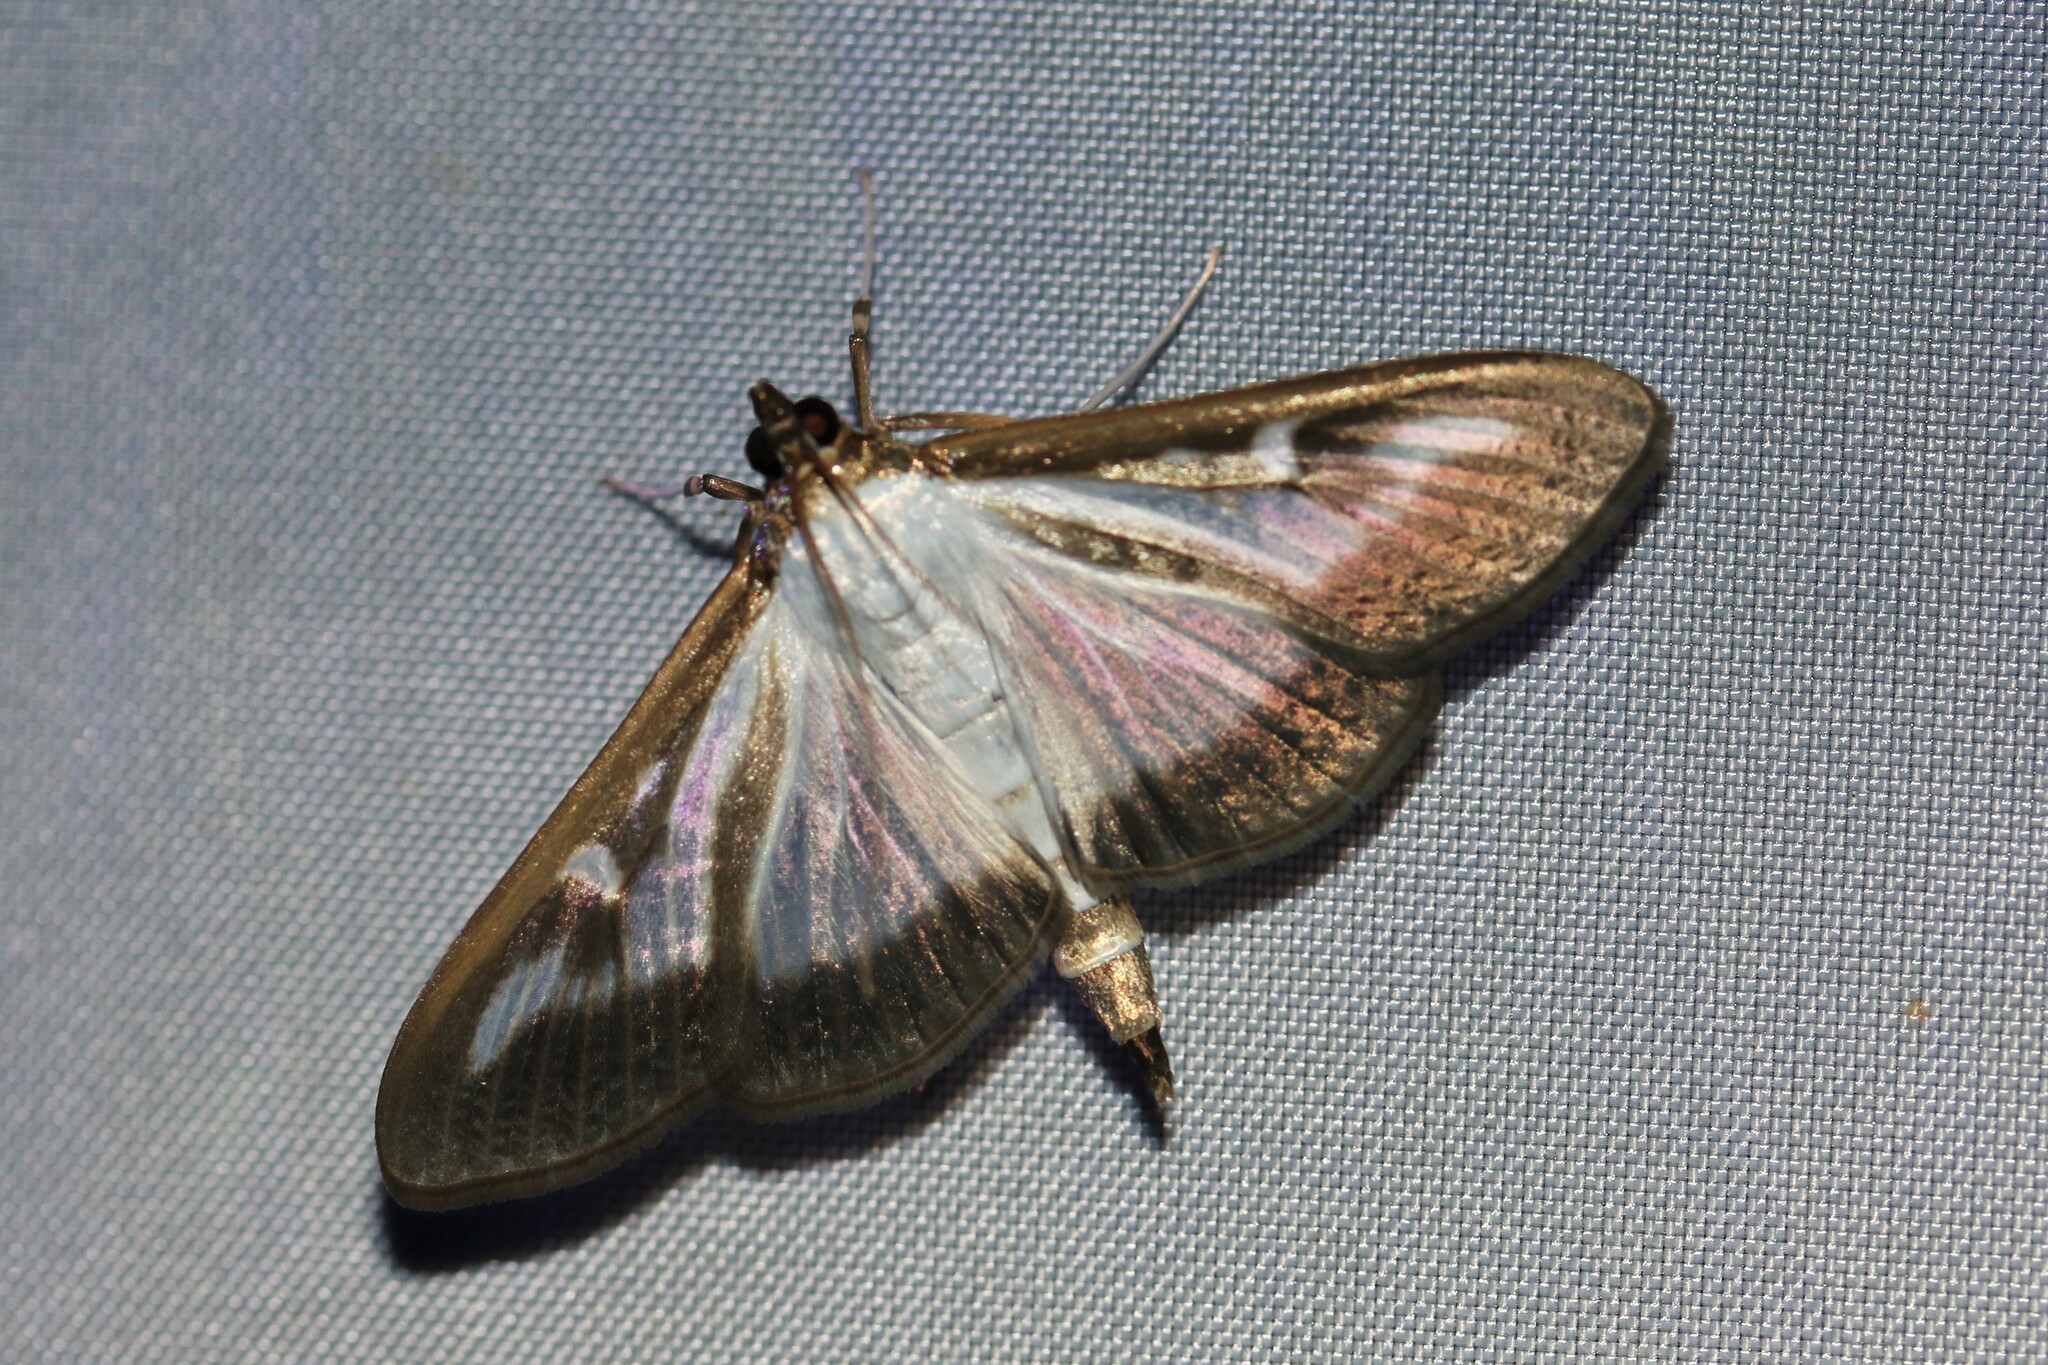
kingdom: Animalia
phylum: Arthropoda
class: Insecta
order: Lepidoptera
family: Crambidae
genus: Cydalima
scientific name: Cydalima perspectalis
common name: Box tree moth
